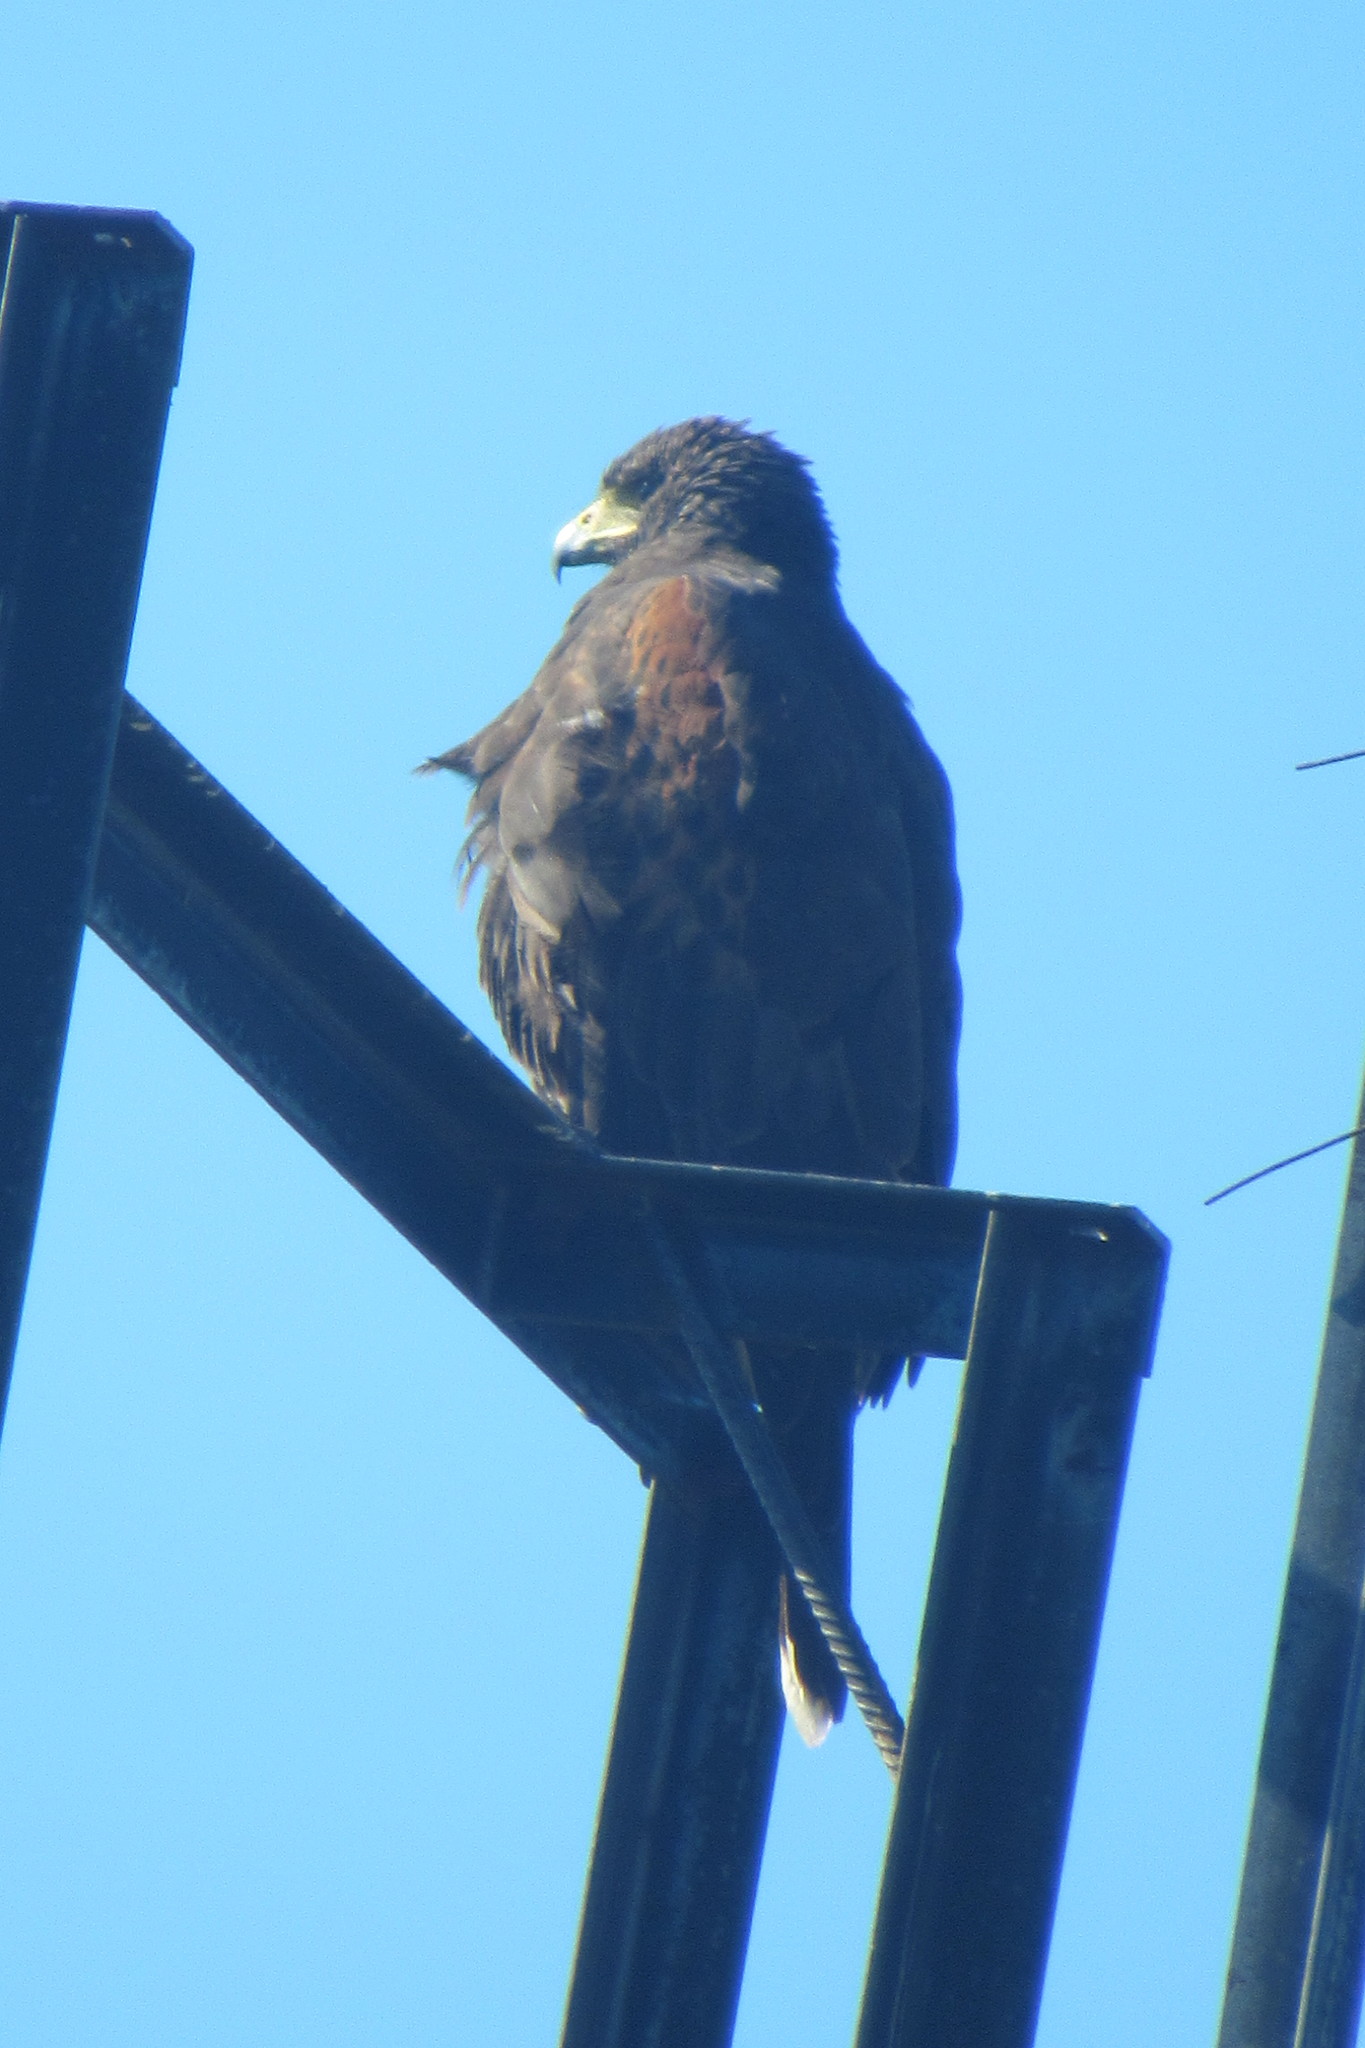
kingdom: Animalia
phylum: Chordata
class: Aves
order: Accipitriformes
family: Accipitridae
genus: Parabuteo
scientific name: Parabuteo unicinctus
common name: Harris's hawk
